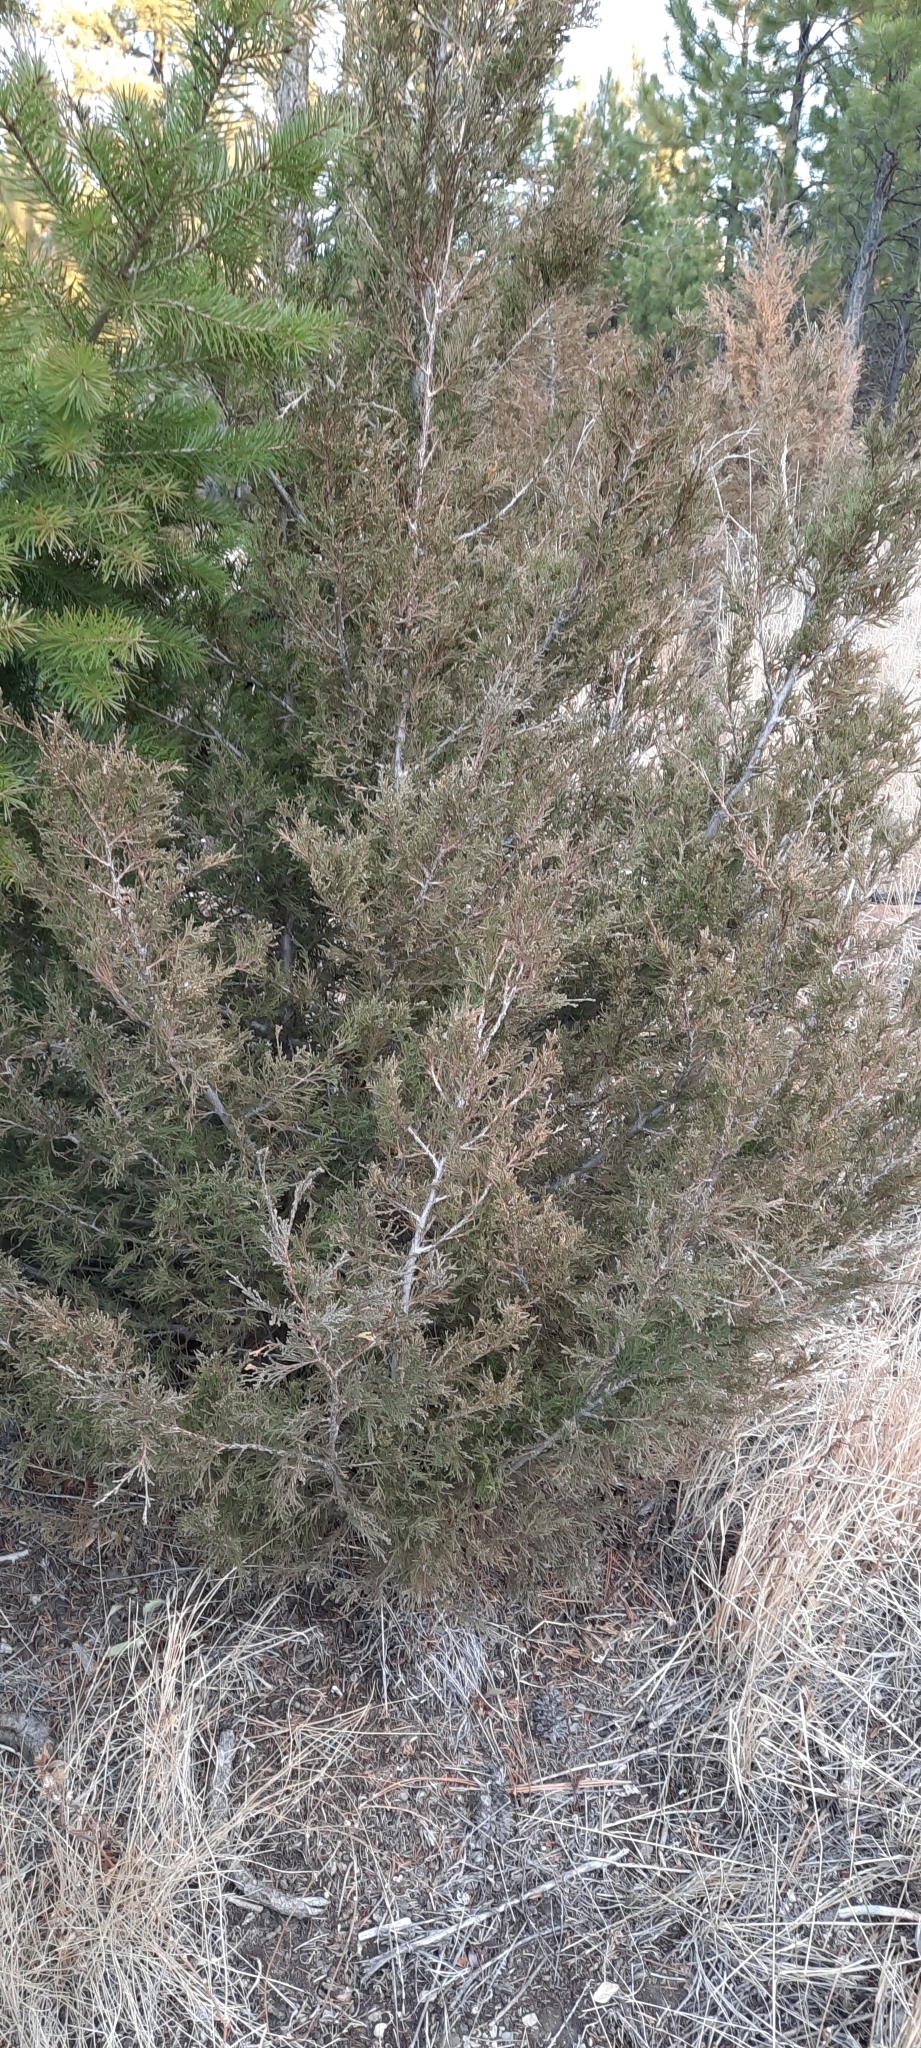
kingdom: Plantae
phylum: Tracheophyta
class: Pinopsida
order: Pinales
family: Cupressaceae
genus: Juniperus
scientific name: Juniperus scopulorum
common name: Rocky mountain juniper
